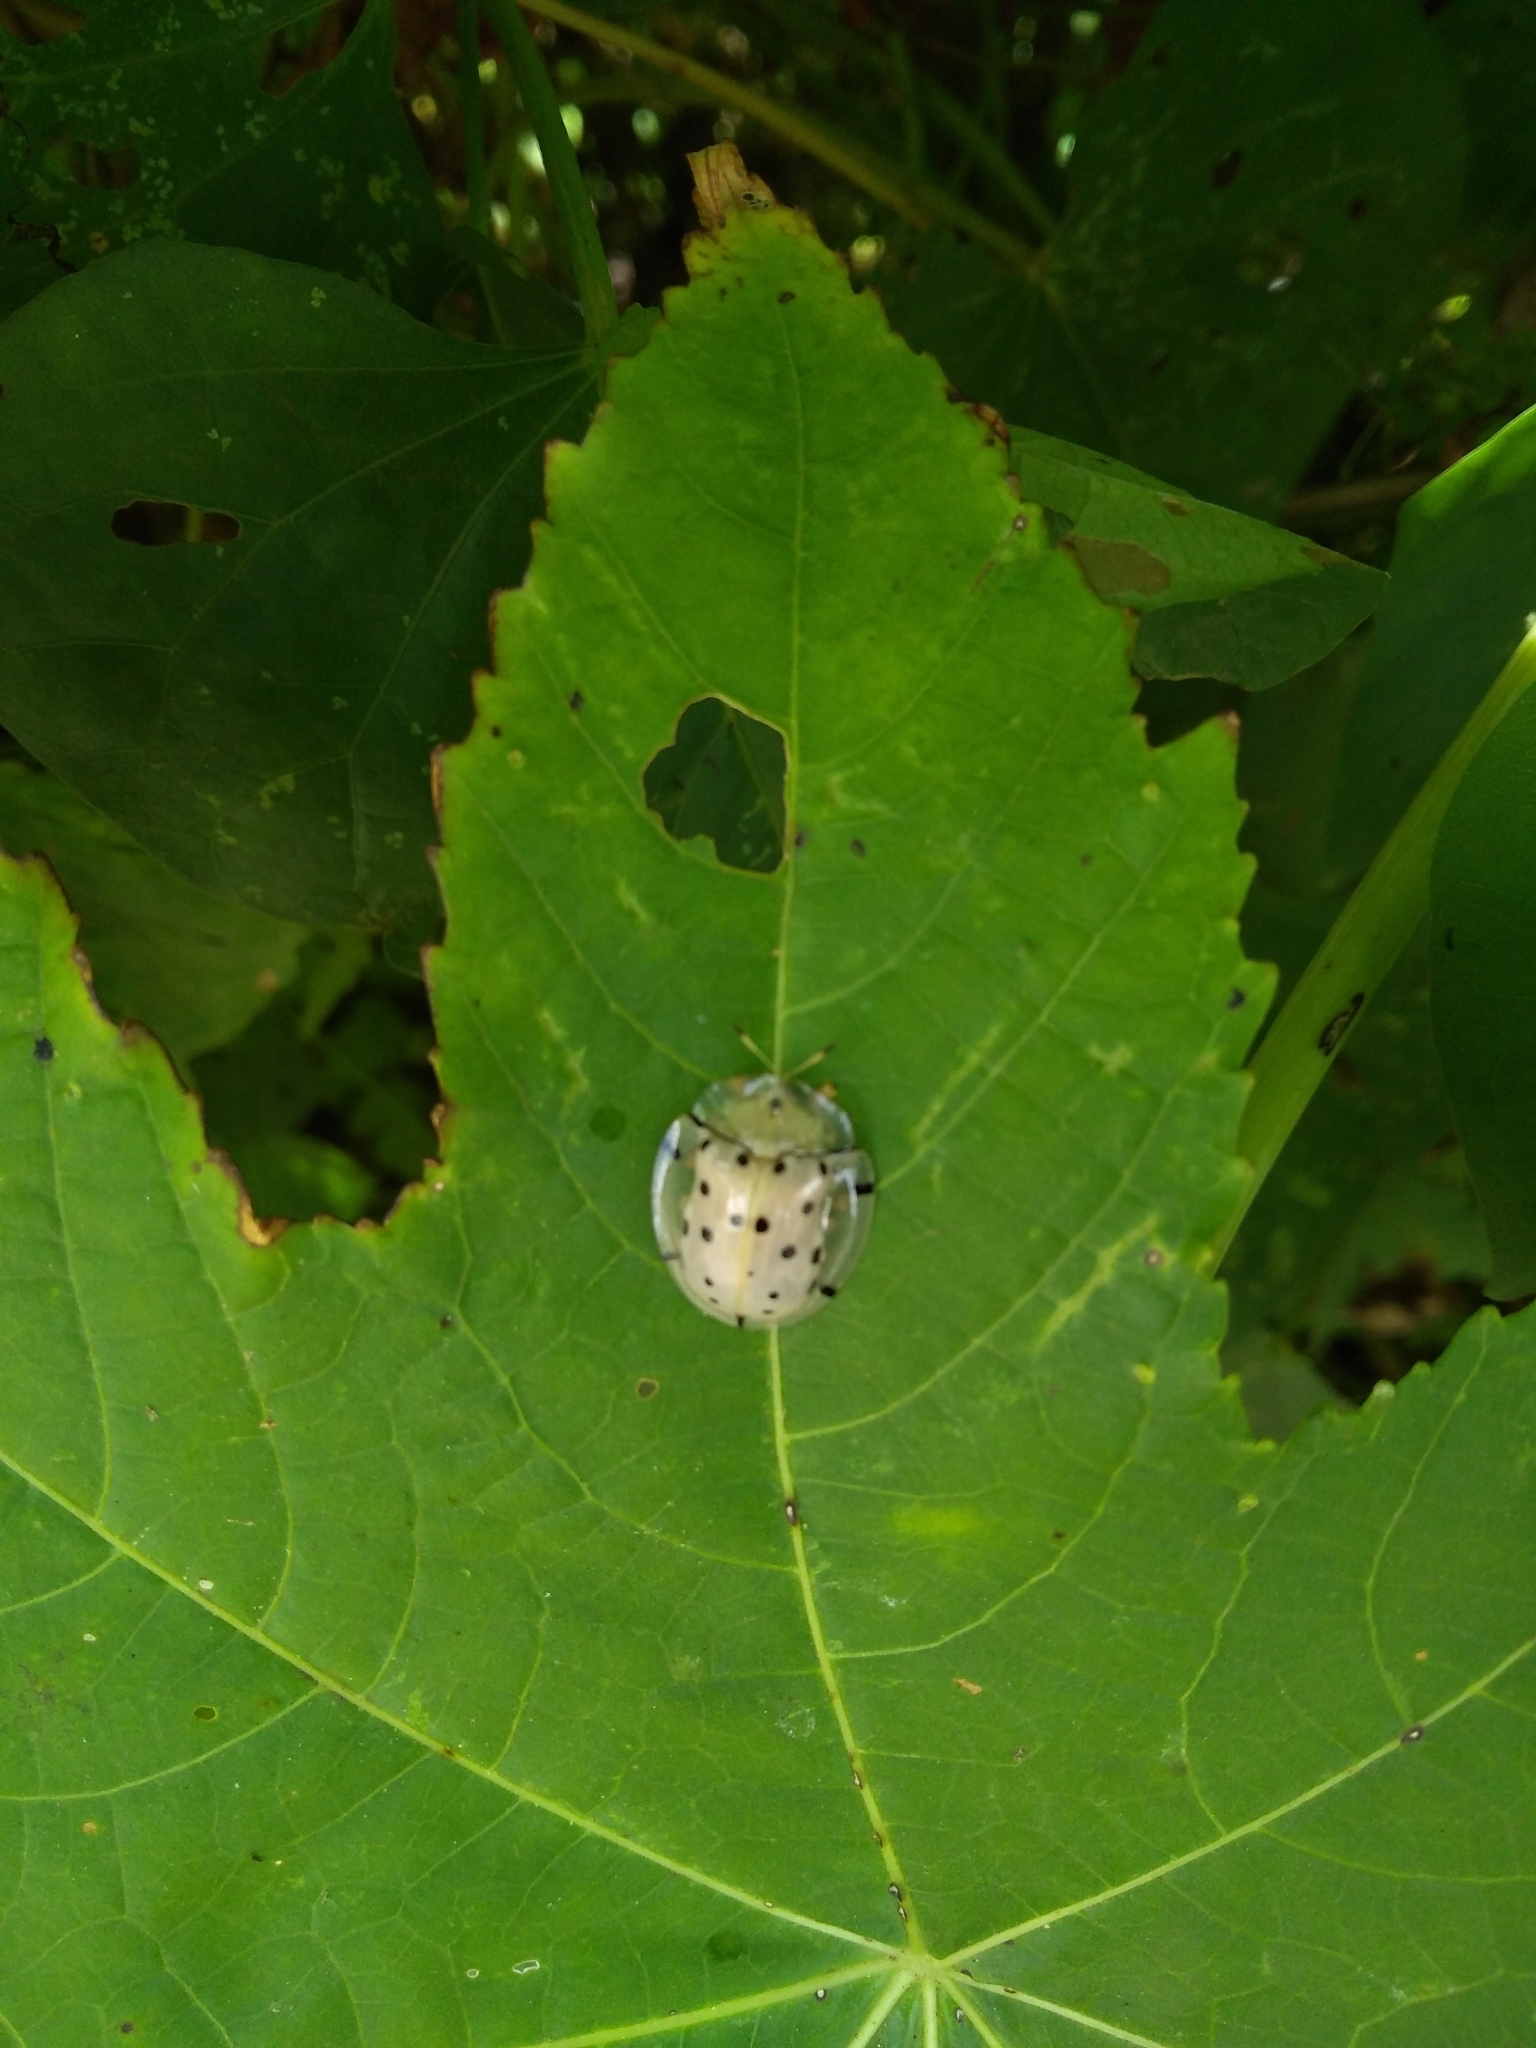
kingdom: Animalia
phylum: Arthropoda
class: Insecta
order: Coleoptera
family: Chrysomelidae
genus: Aspidimorpha
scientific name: Aspidimorpha miliaris
